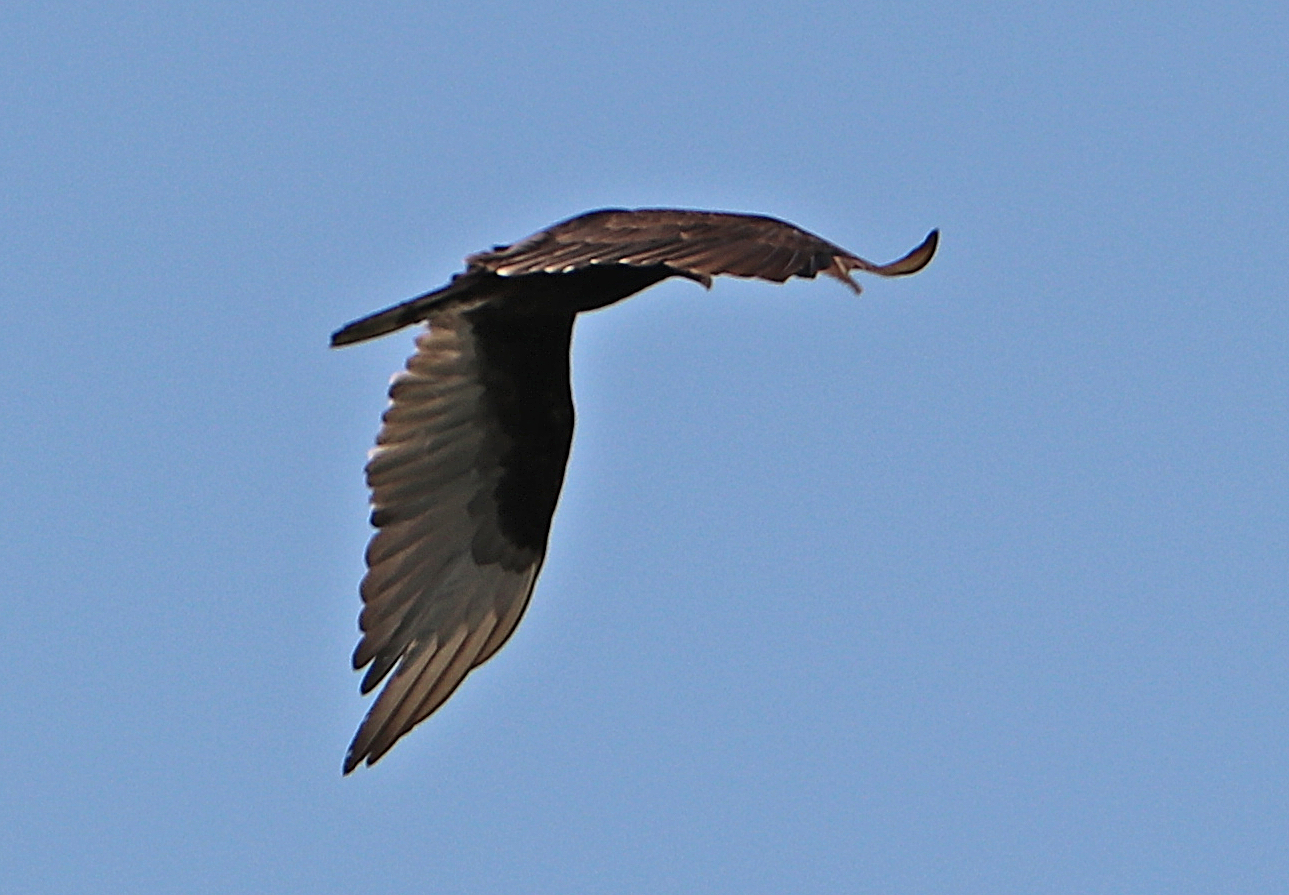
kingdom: Animalia
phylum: Chordata
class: Aves
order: Accipitriformes
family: Cathartidae
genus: Cathartes
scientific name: Cathartes aura
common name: Turkey vulture
